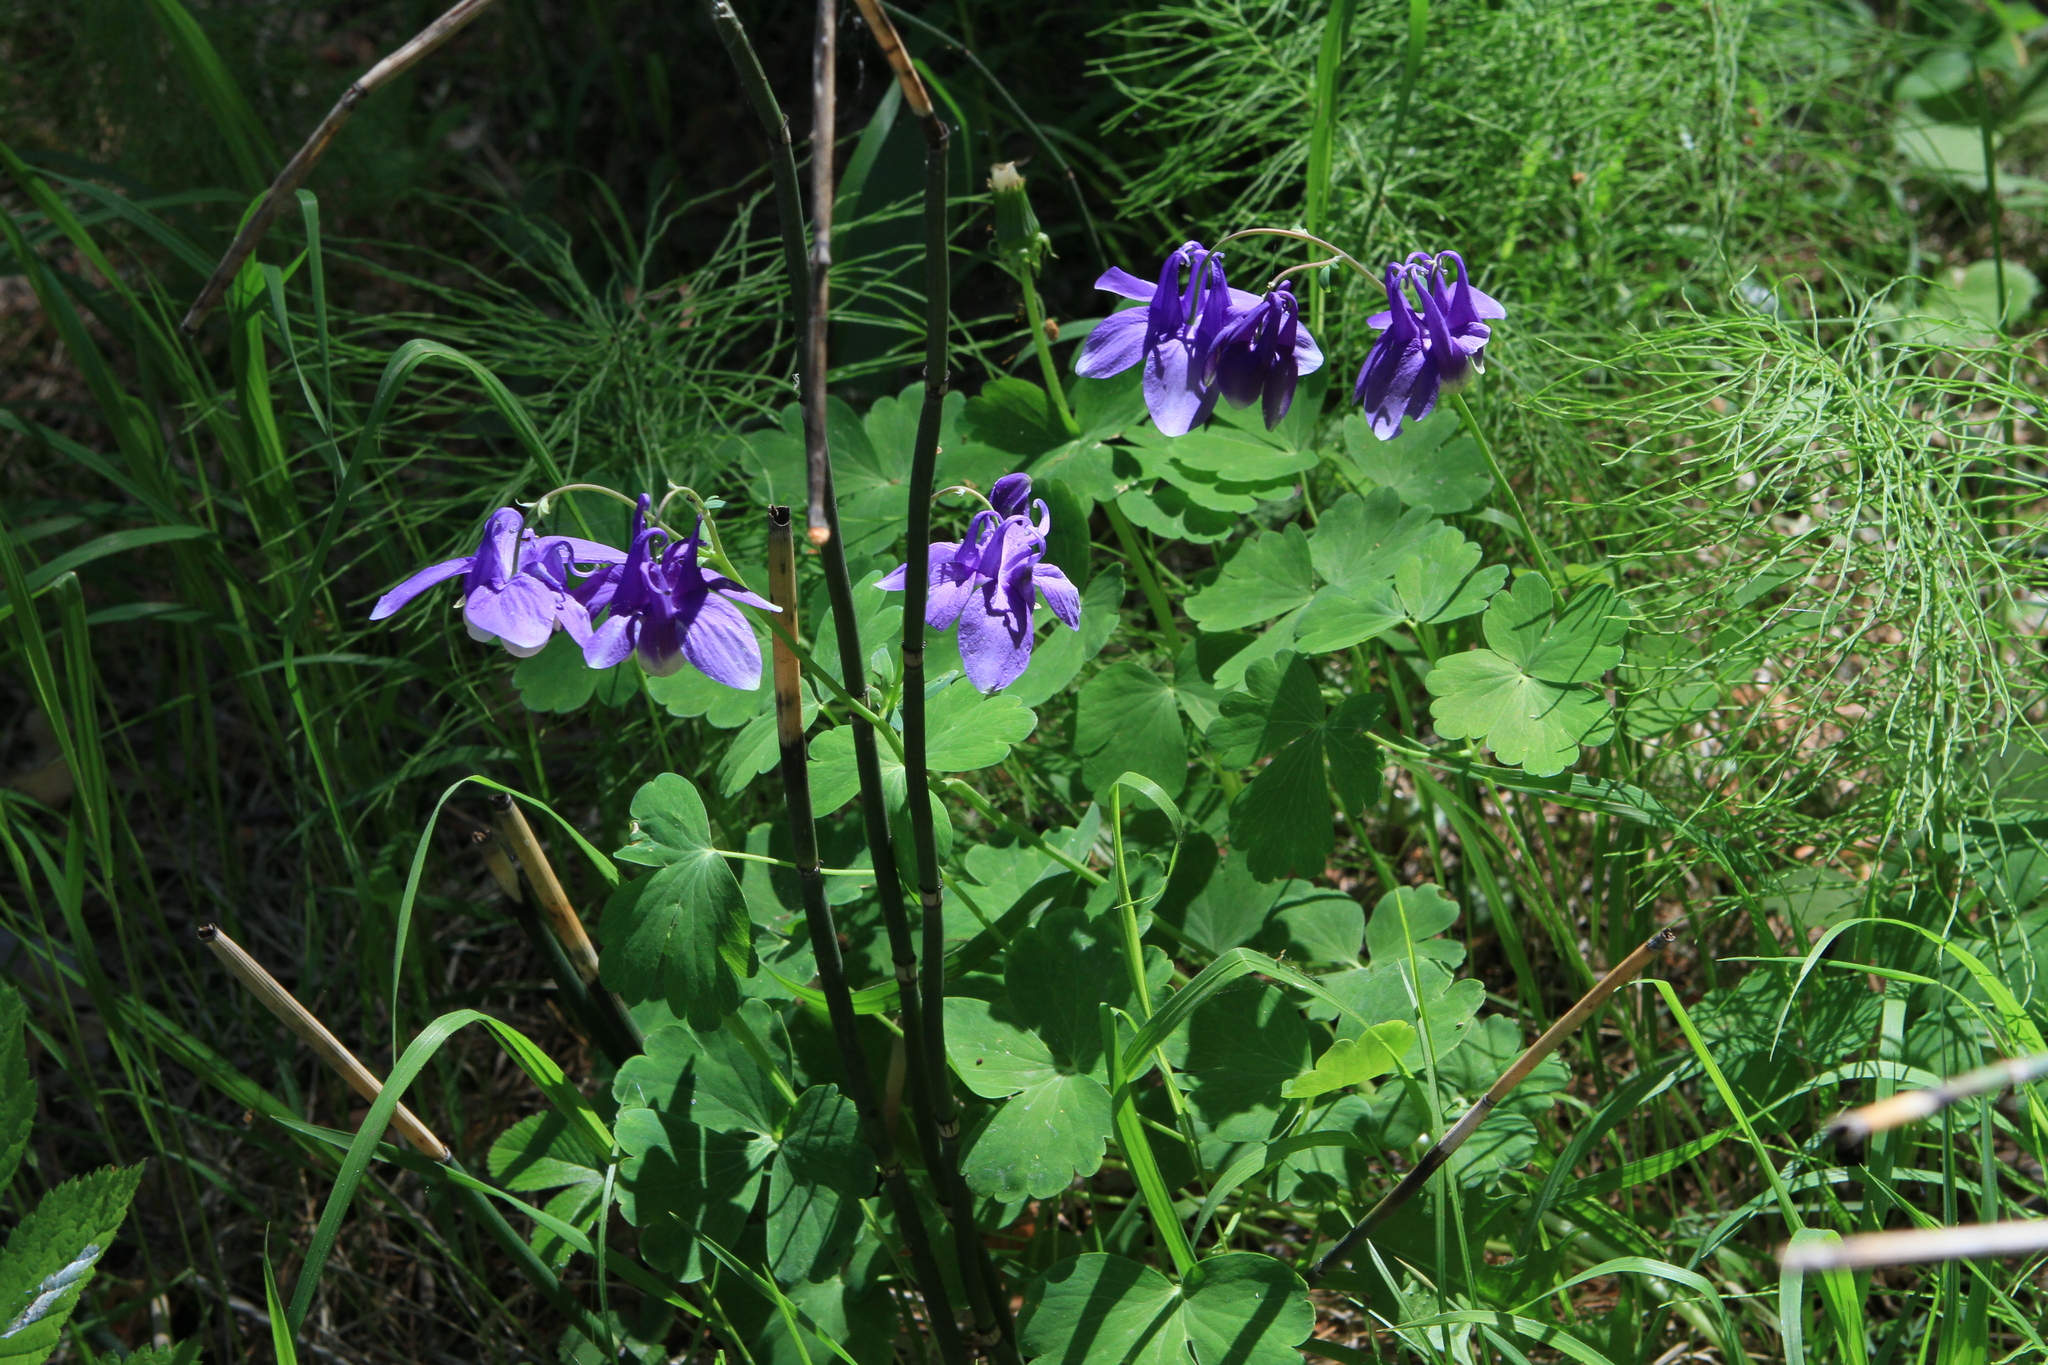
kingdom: Plantae
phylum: Tracheophyta
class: Magnoliopsida
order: Ranunculales
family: Ranunculaceae
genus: Aquilegia
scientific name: Aquilegia sibirica
